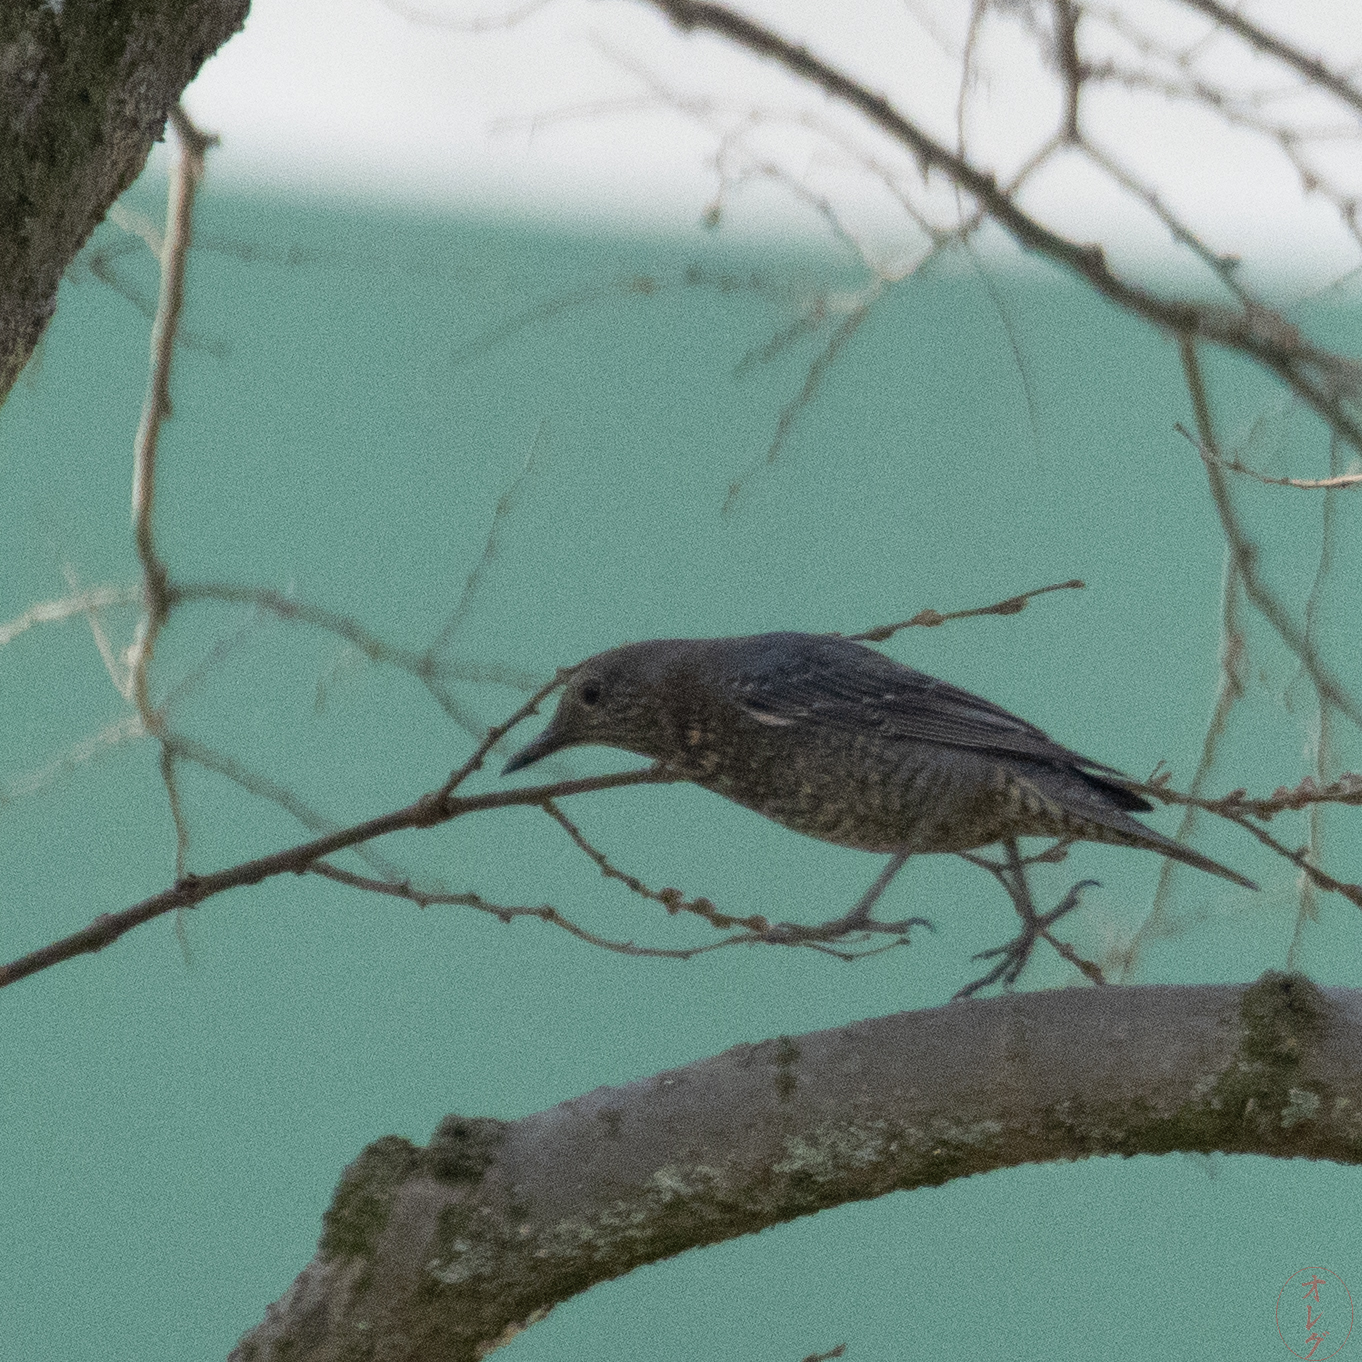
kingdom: Animalia
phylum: Chordata
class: Aves
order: Passeriformes
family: Muscicapidae
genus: Monticola
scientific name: Monticola solitarius
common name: Blue rock thrush
